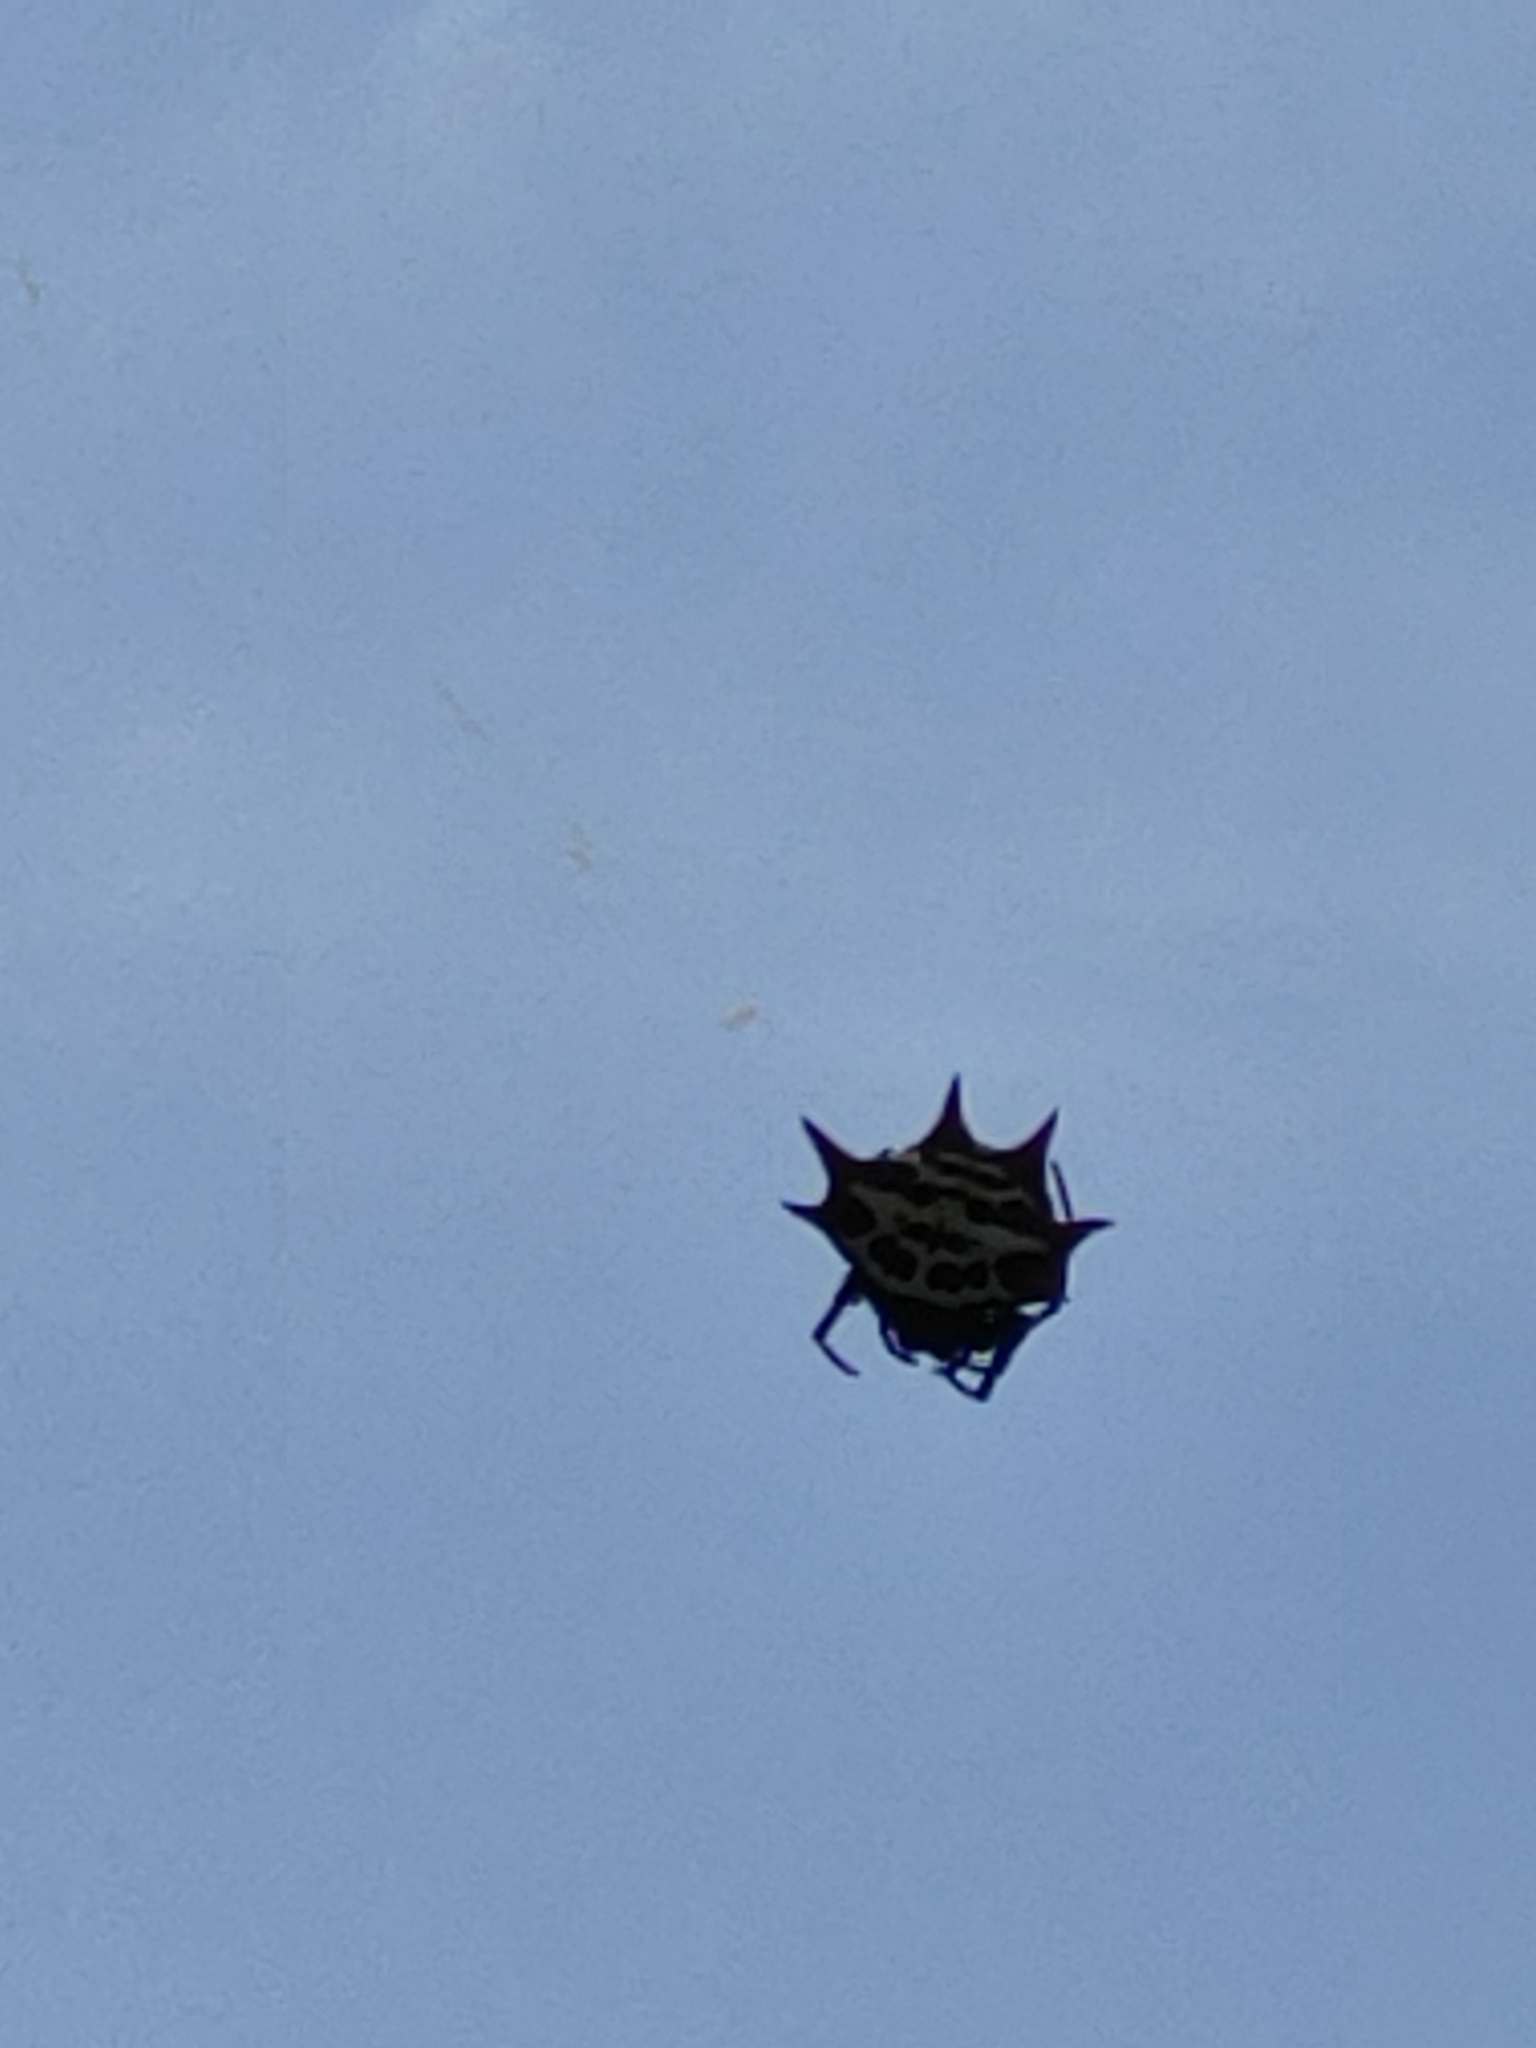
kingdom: Animalia
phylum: Arthropoda
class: Arachnida
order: Araneae
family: Araneidae
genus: Gasteracantha
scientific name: Gasteracantha cancriformis
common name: Orb weavers
